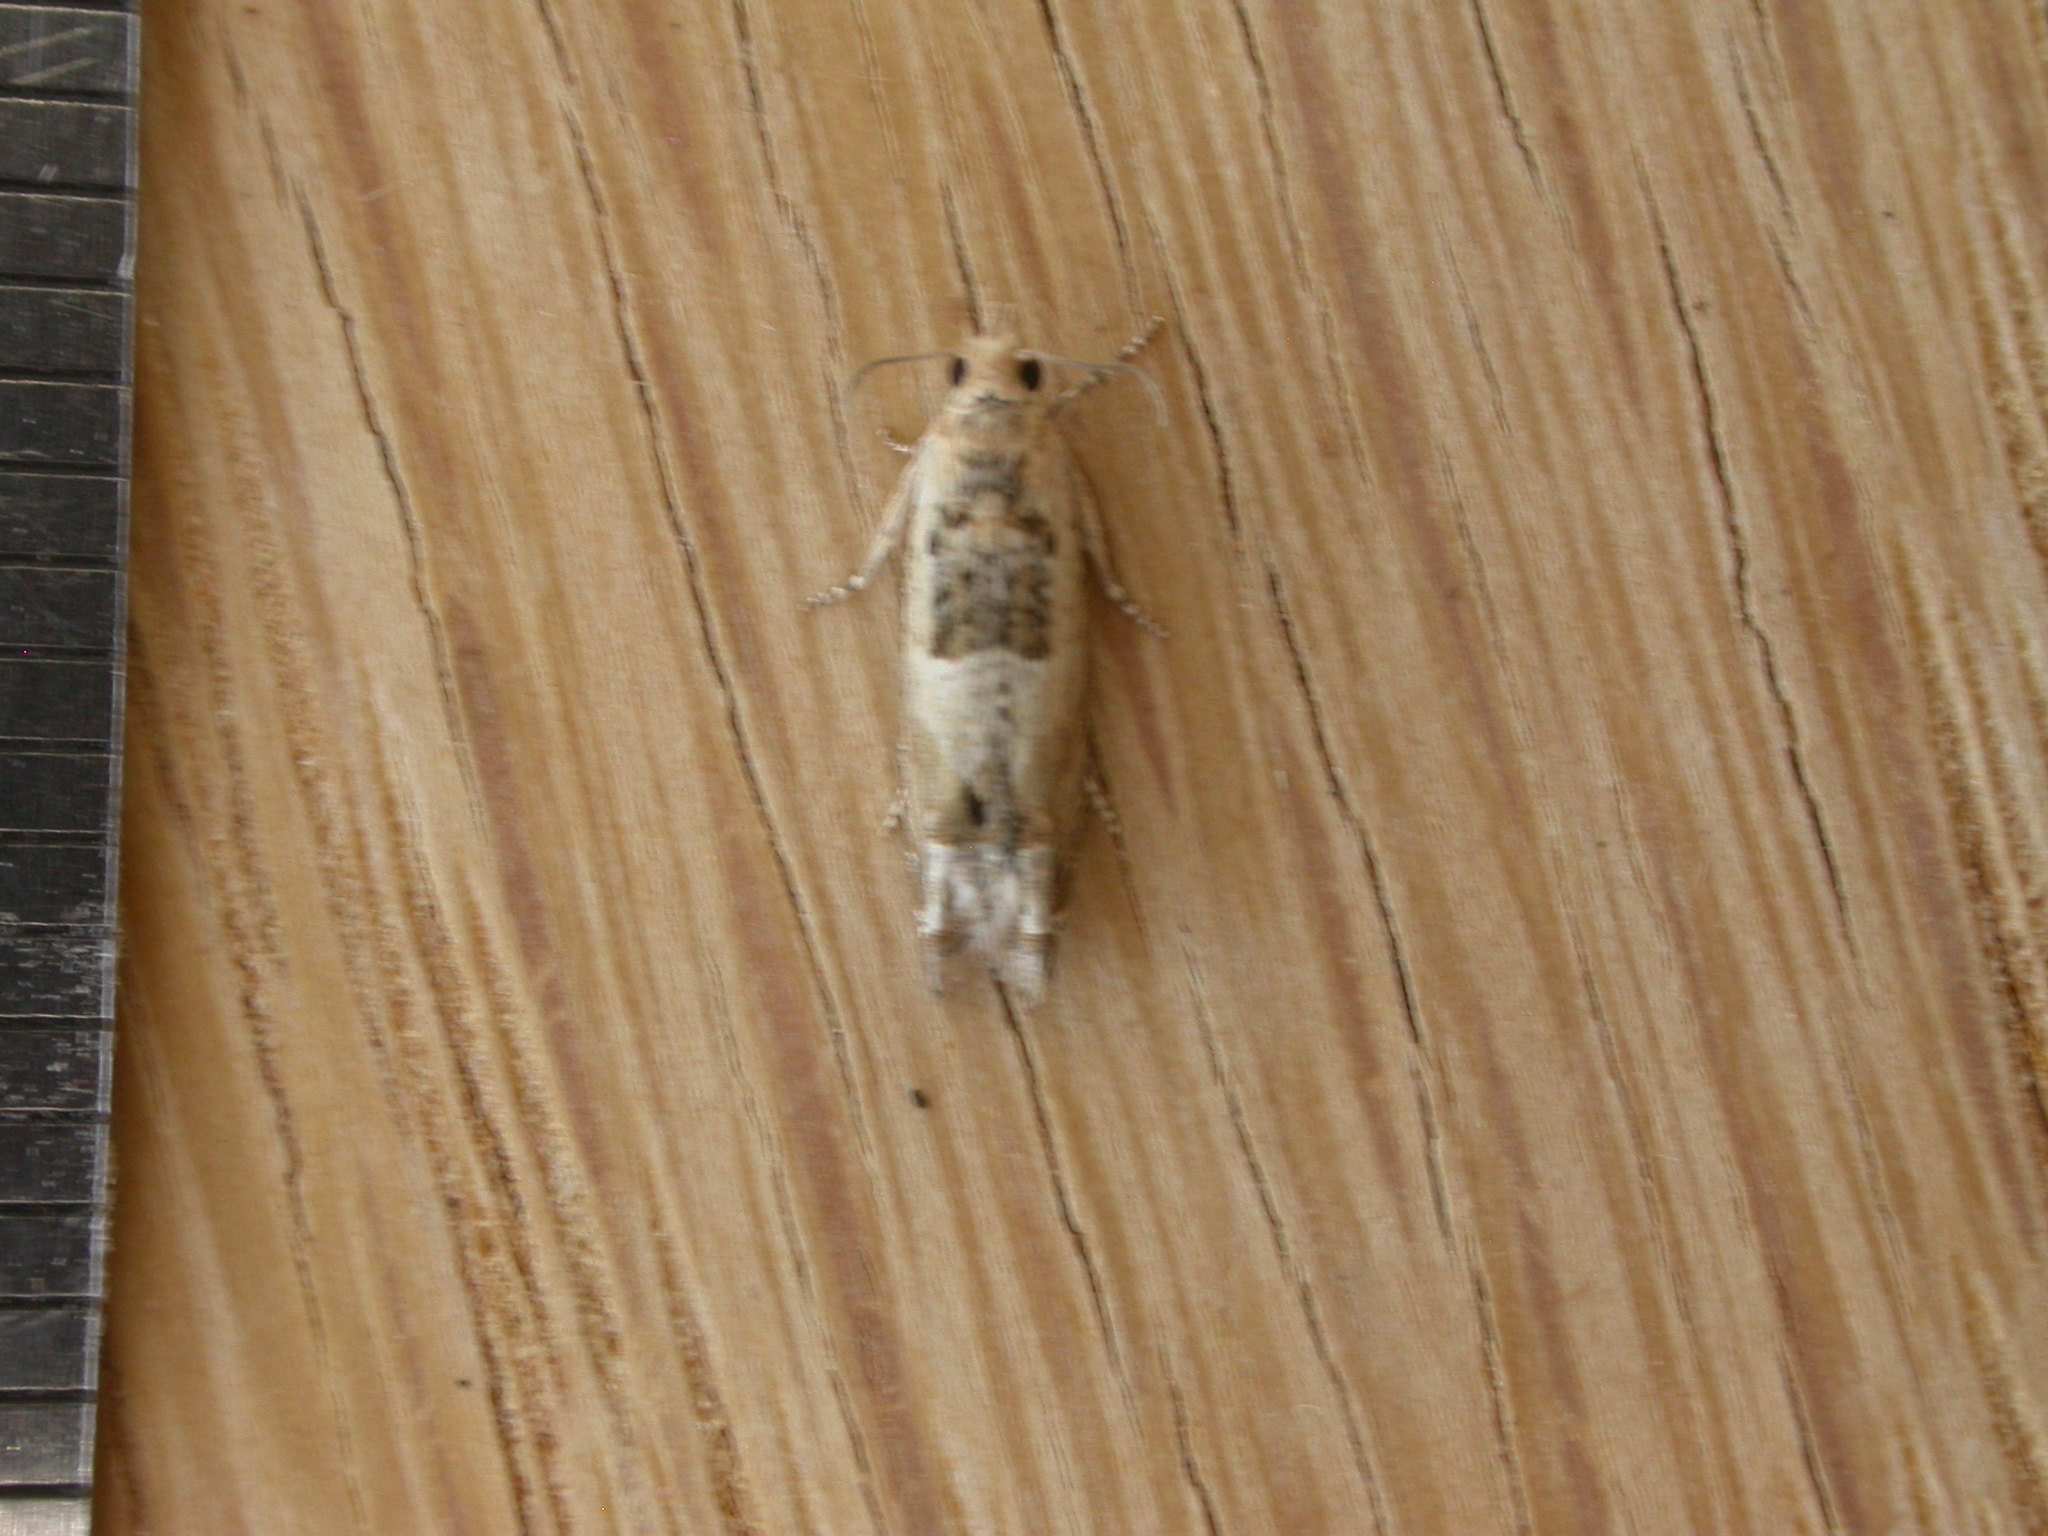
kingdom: Animalia
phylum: Arthropoda
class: Insecta
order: Lepidoptera
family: Tortricidae
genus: Crocidosema
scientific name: Crocidosema plebejana
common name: Southern bell
